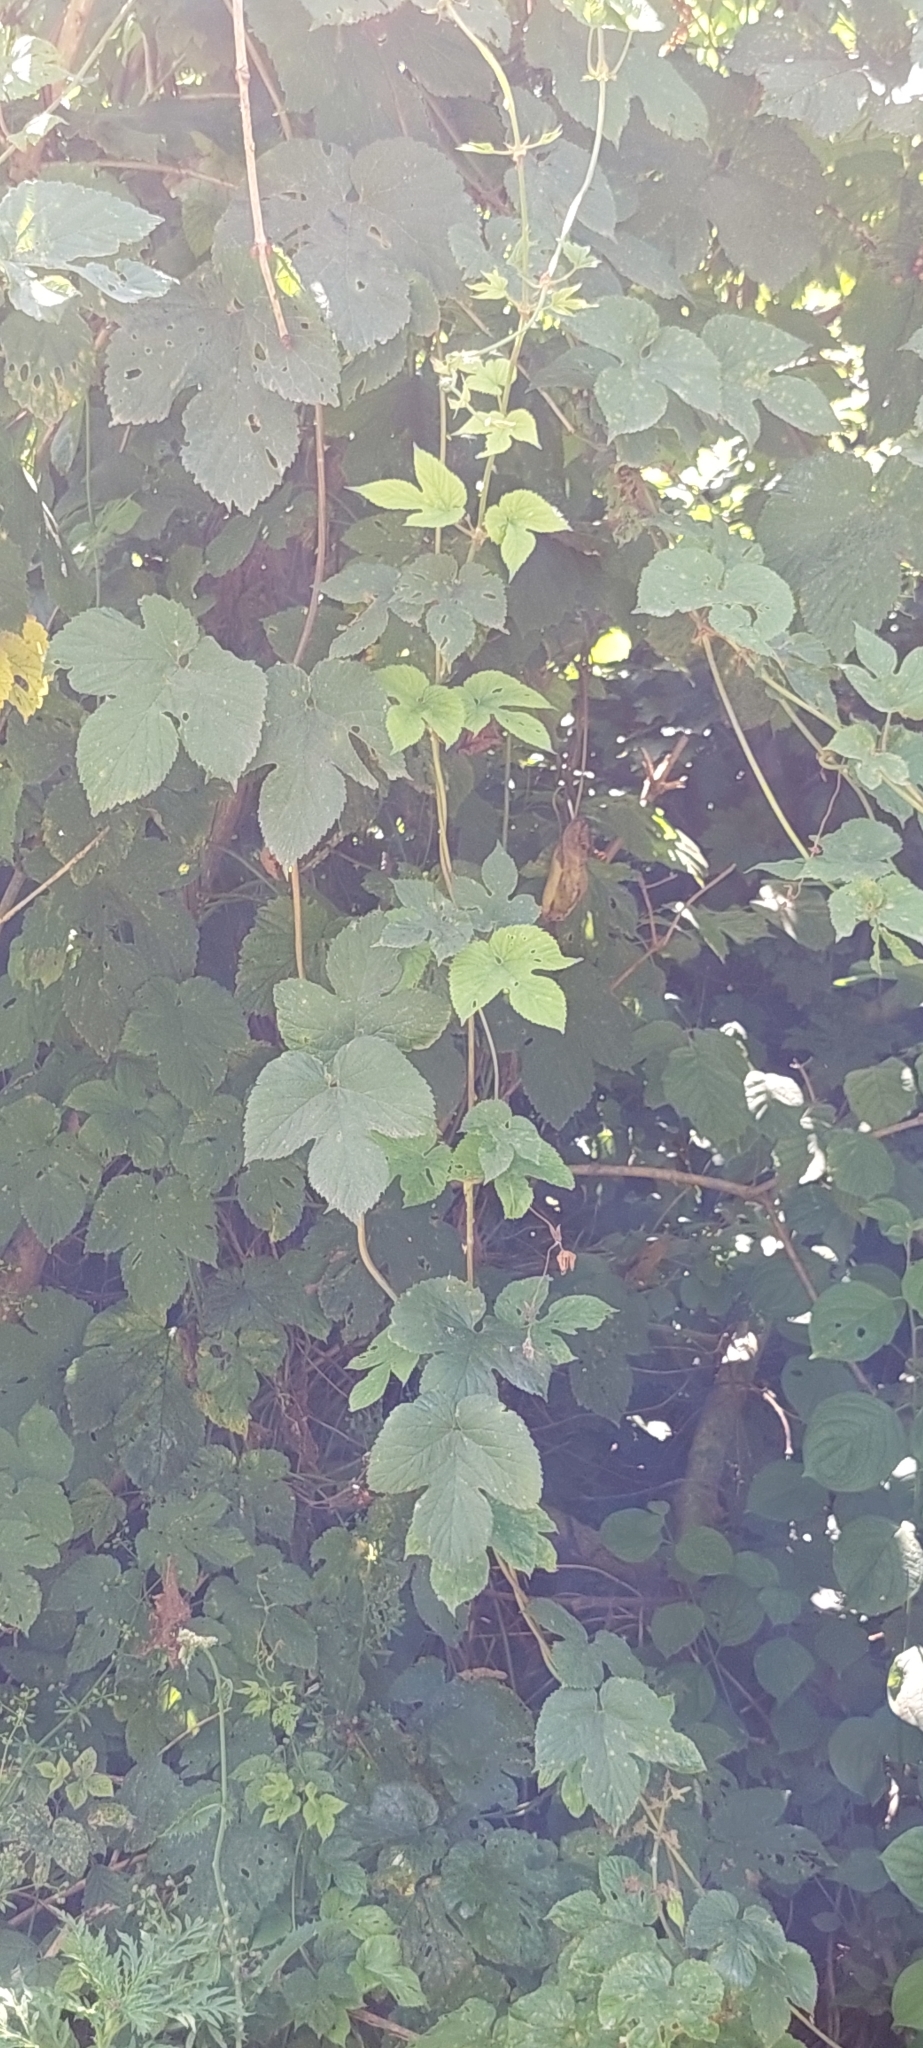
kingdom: Plantae
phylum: Tracheophyta
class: Magnoliopsida
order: Rosales
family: Cannabaceae
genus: Humulus
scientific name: Humulus lupulus
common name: Hop
